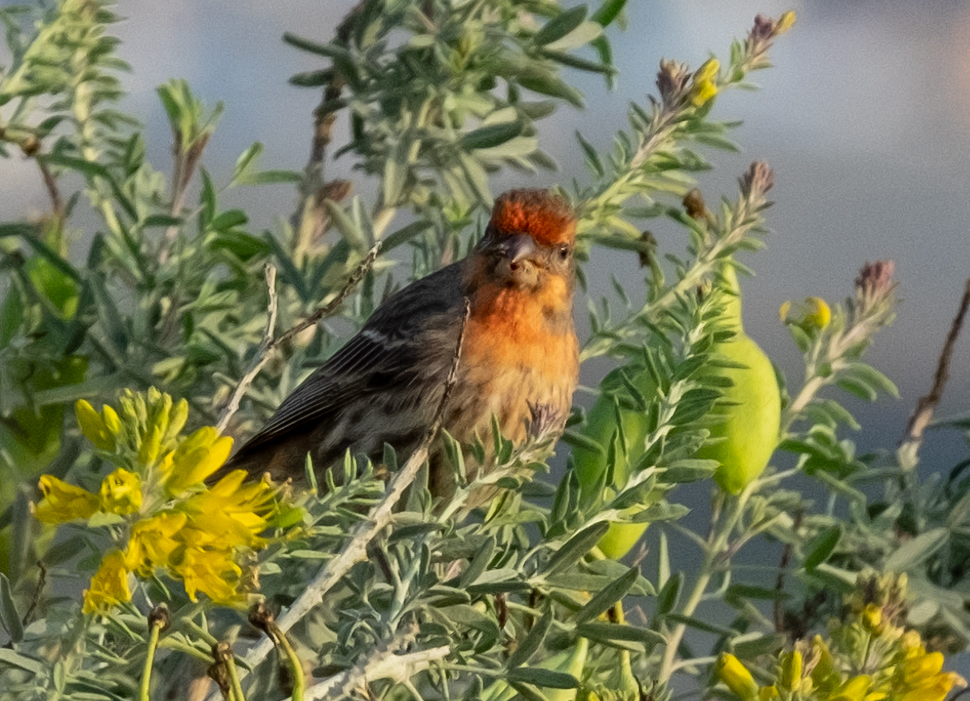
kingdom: Animalia
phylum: Chordata
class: Aves
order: Passeriformes
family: Fringillidae
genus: Haemorhous
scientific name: Haemorhous mexicanus
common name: House finch
